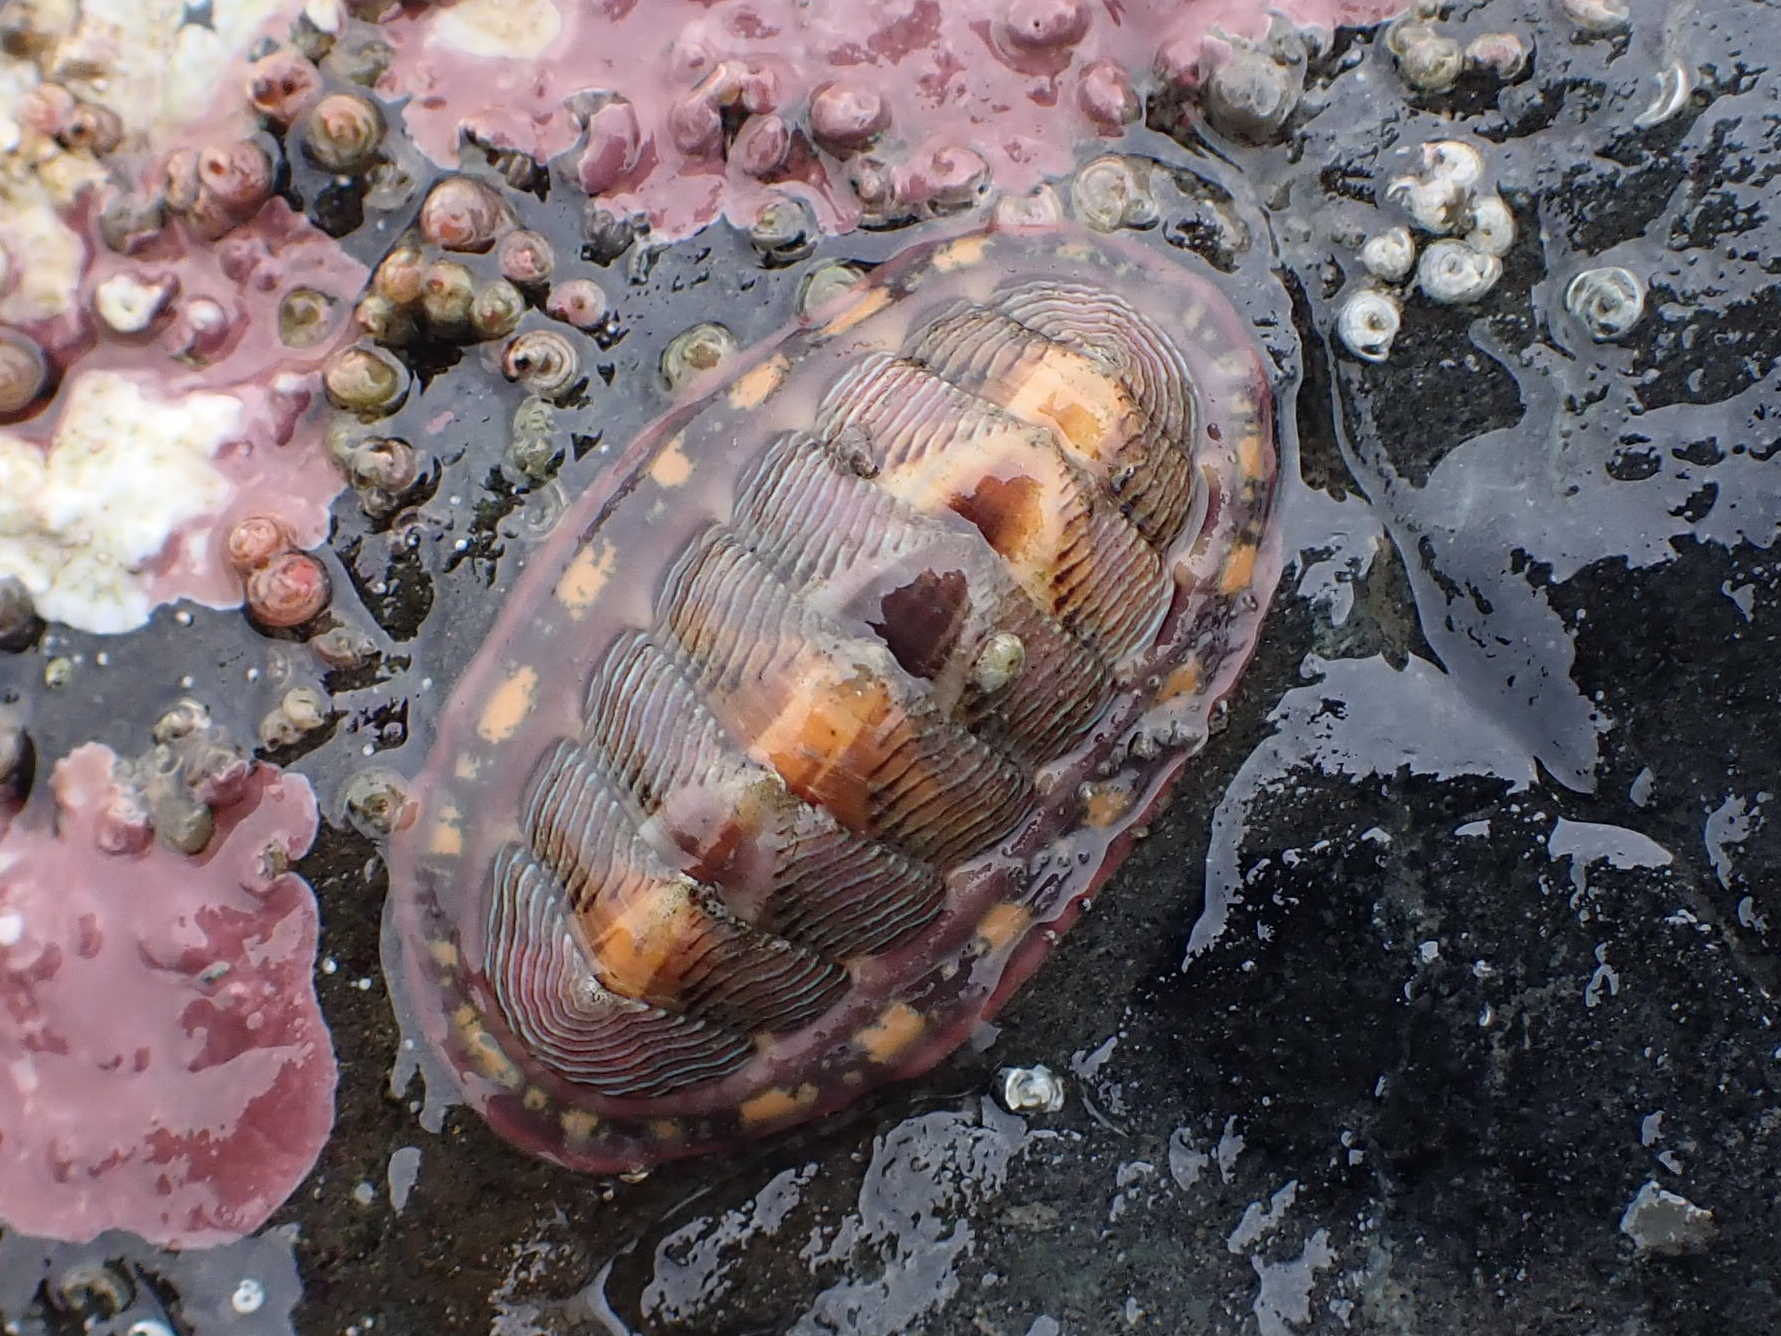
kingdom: Animalia
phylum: Mollusca
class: Polyplacophora
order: Chitonida
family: Tonicellidae
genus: Tonicella
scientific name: Tonicella lineata
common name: Lined chiton
